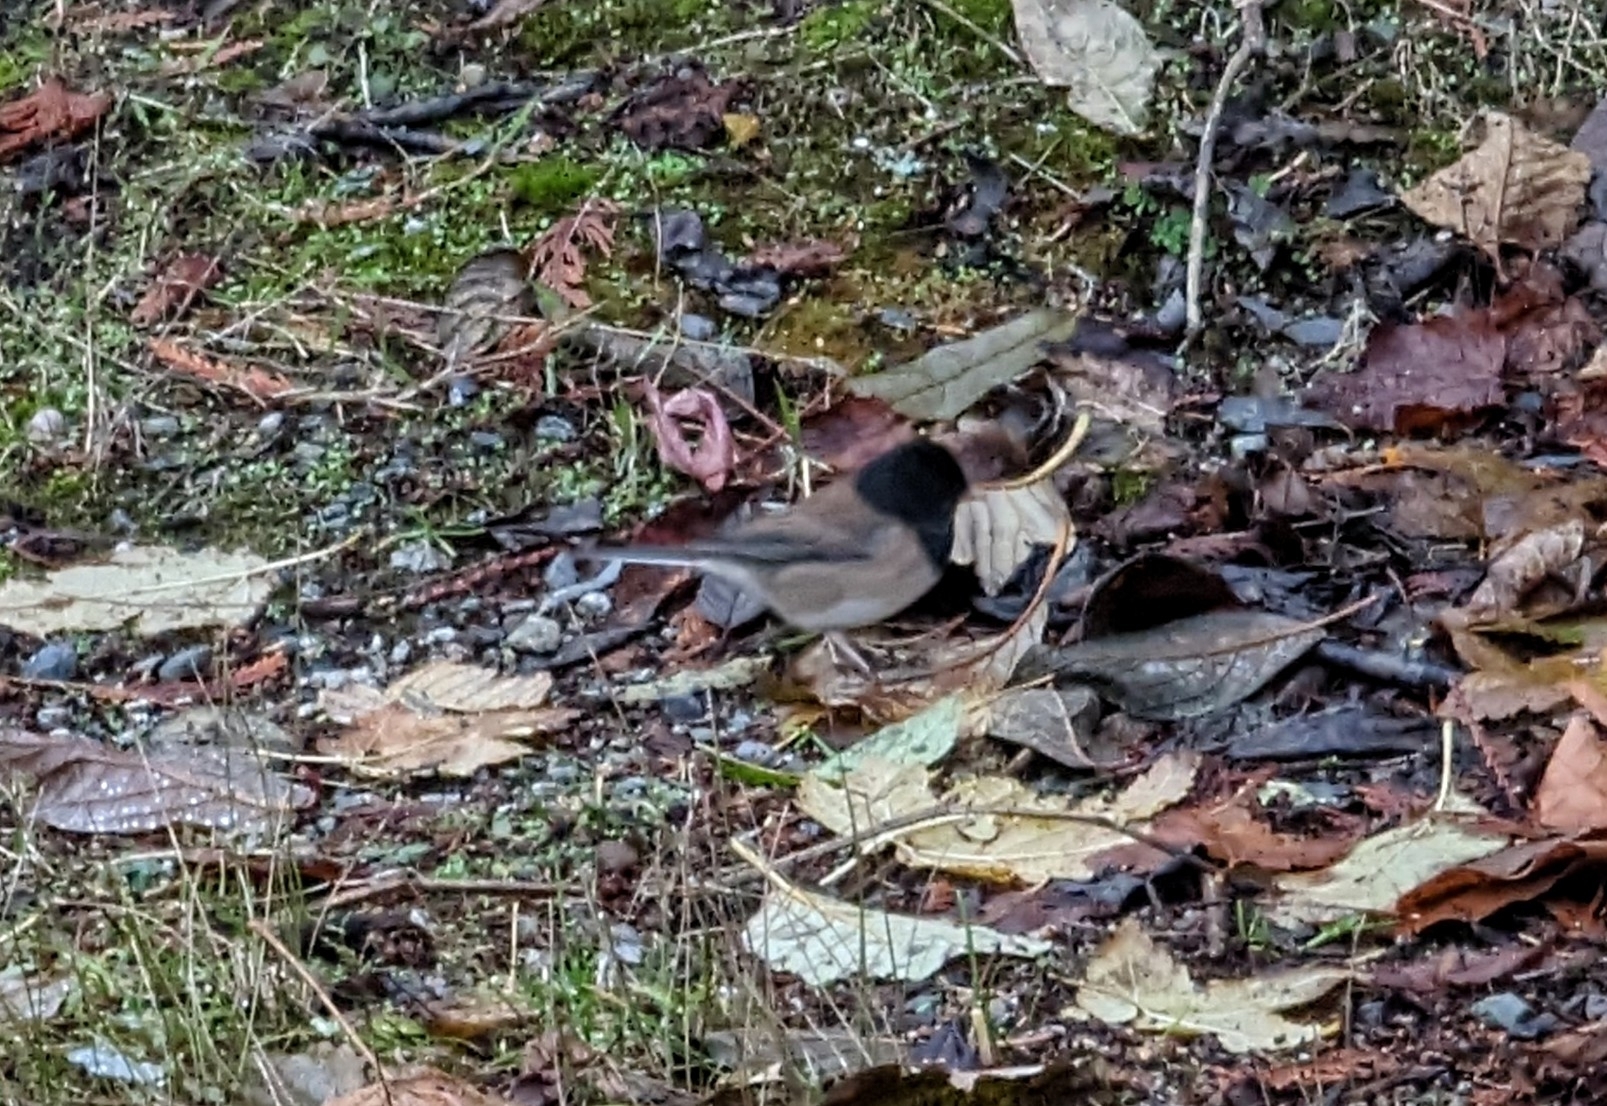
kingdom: Animalia
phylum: Chordata
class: Aves
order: Passeriformes
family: Passerellidae
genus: Junco
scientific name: Junco hyemalis
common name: Dark-eyed junco
